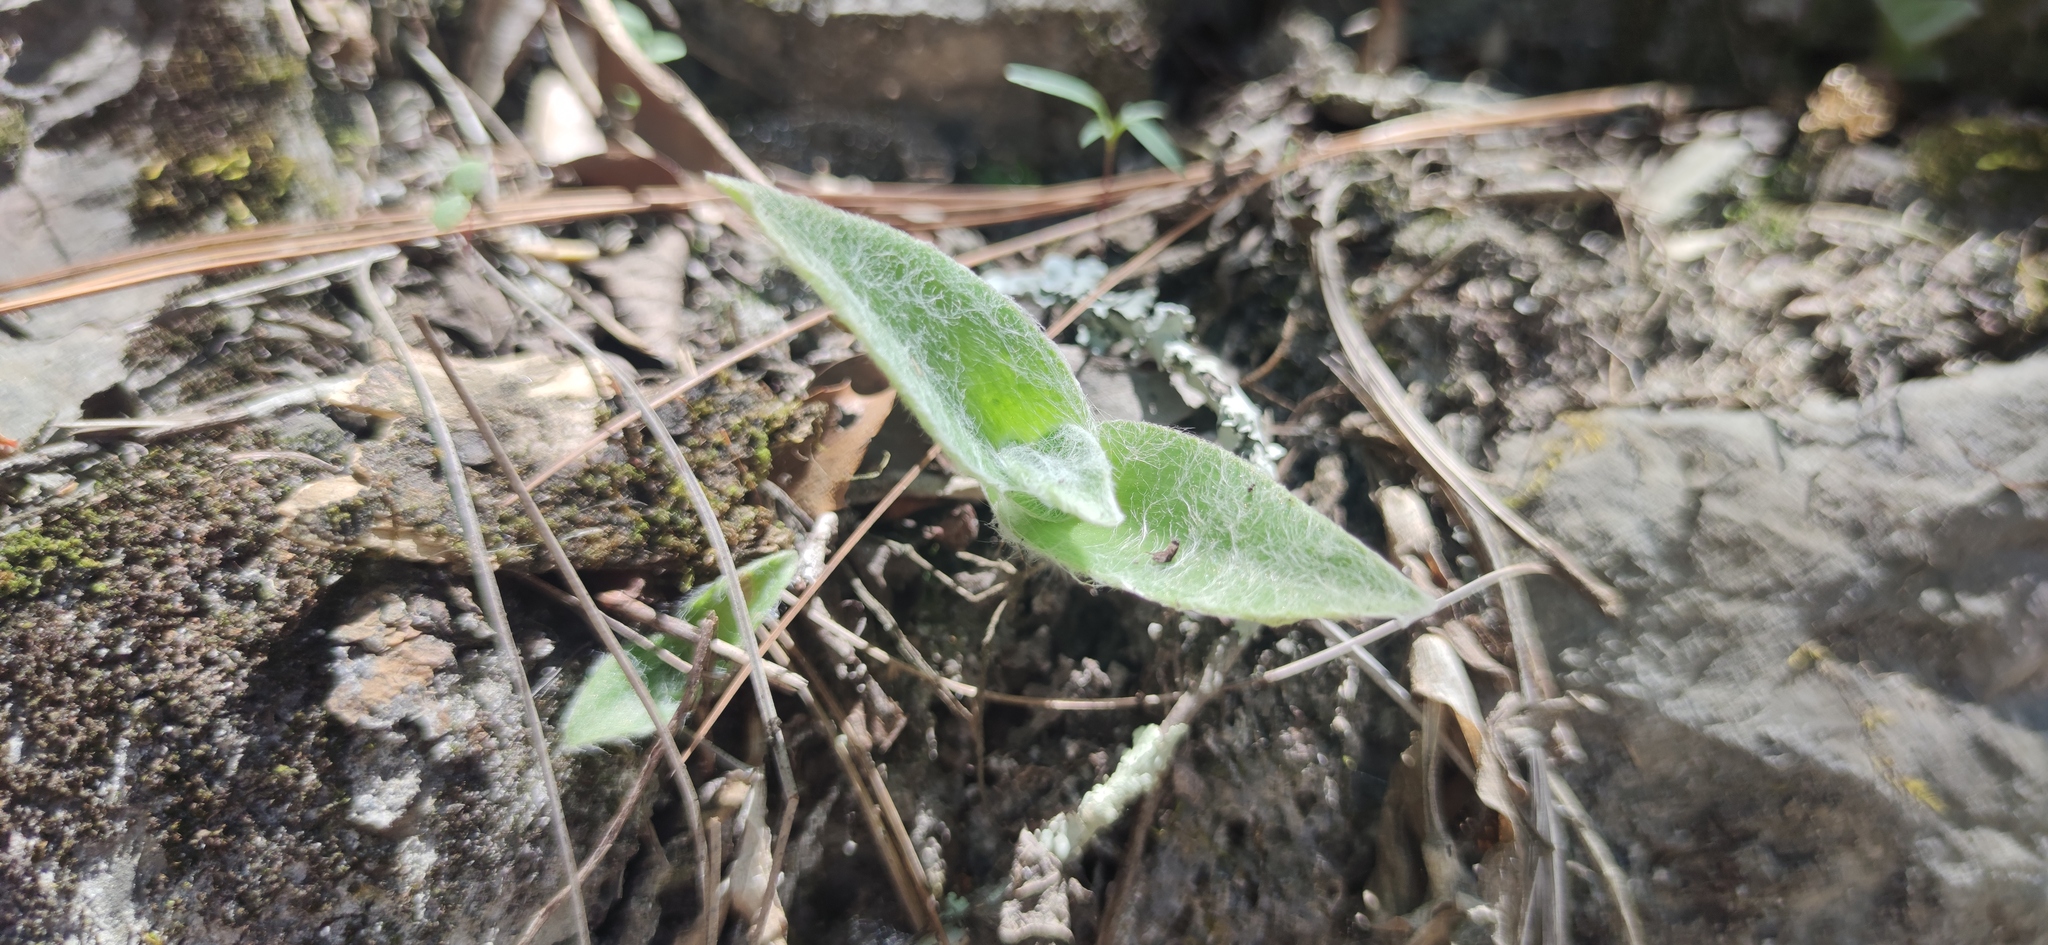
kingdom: Plantae
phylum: Tracheophyta
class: Liliopsida
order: Commelinales
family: Commelinaceae
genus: Tradescantia
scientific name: Tradescantia sillamontana
